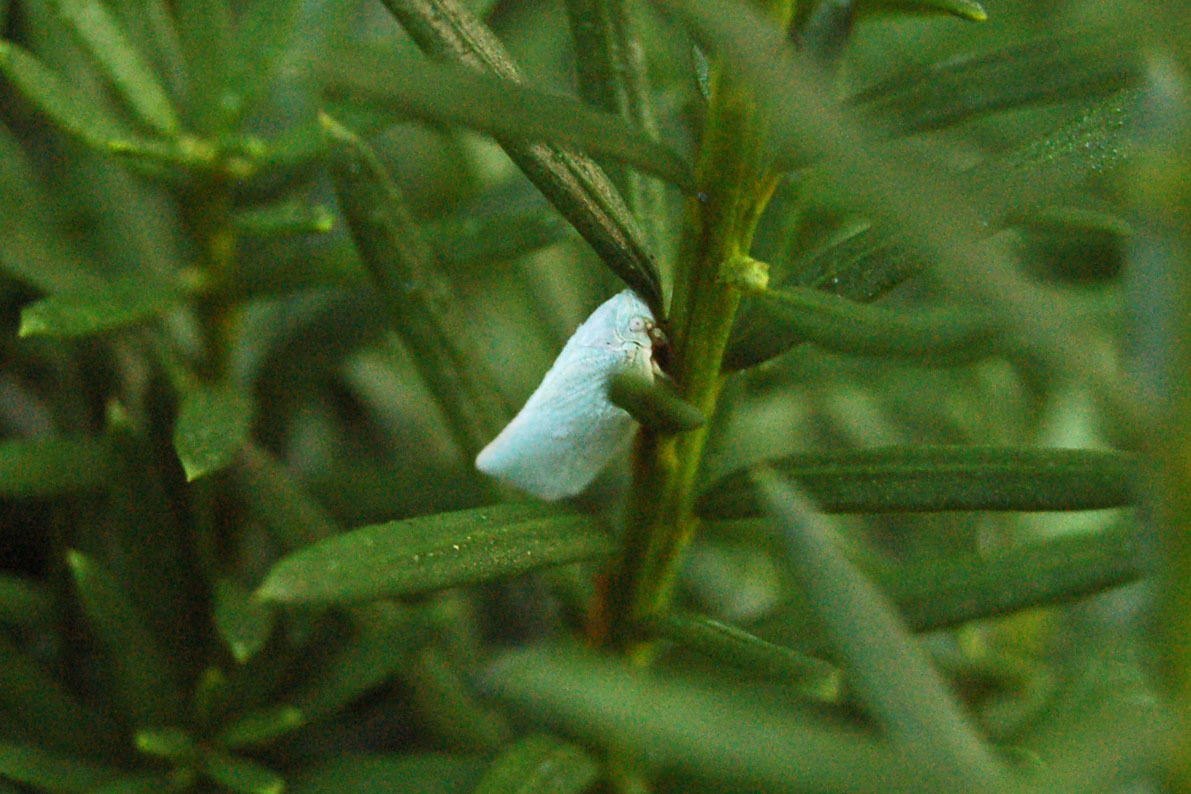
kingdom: Animalia
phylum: Arthropoda
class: Insecta
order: Hemiptera
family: Flatidae
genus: Flatormenis
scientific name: Flatormenis proxima
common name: Northern flatid planthopper
